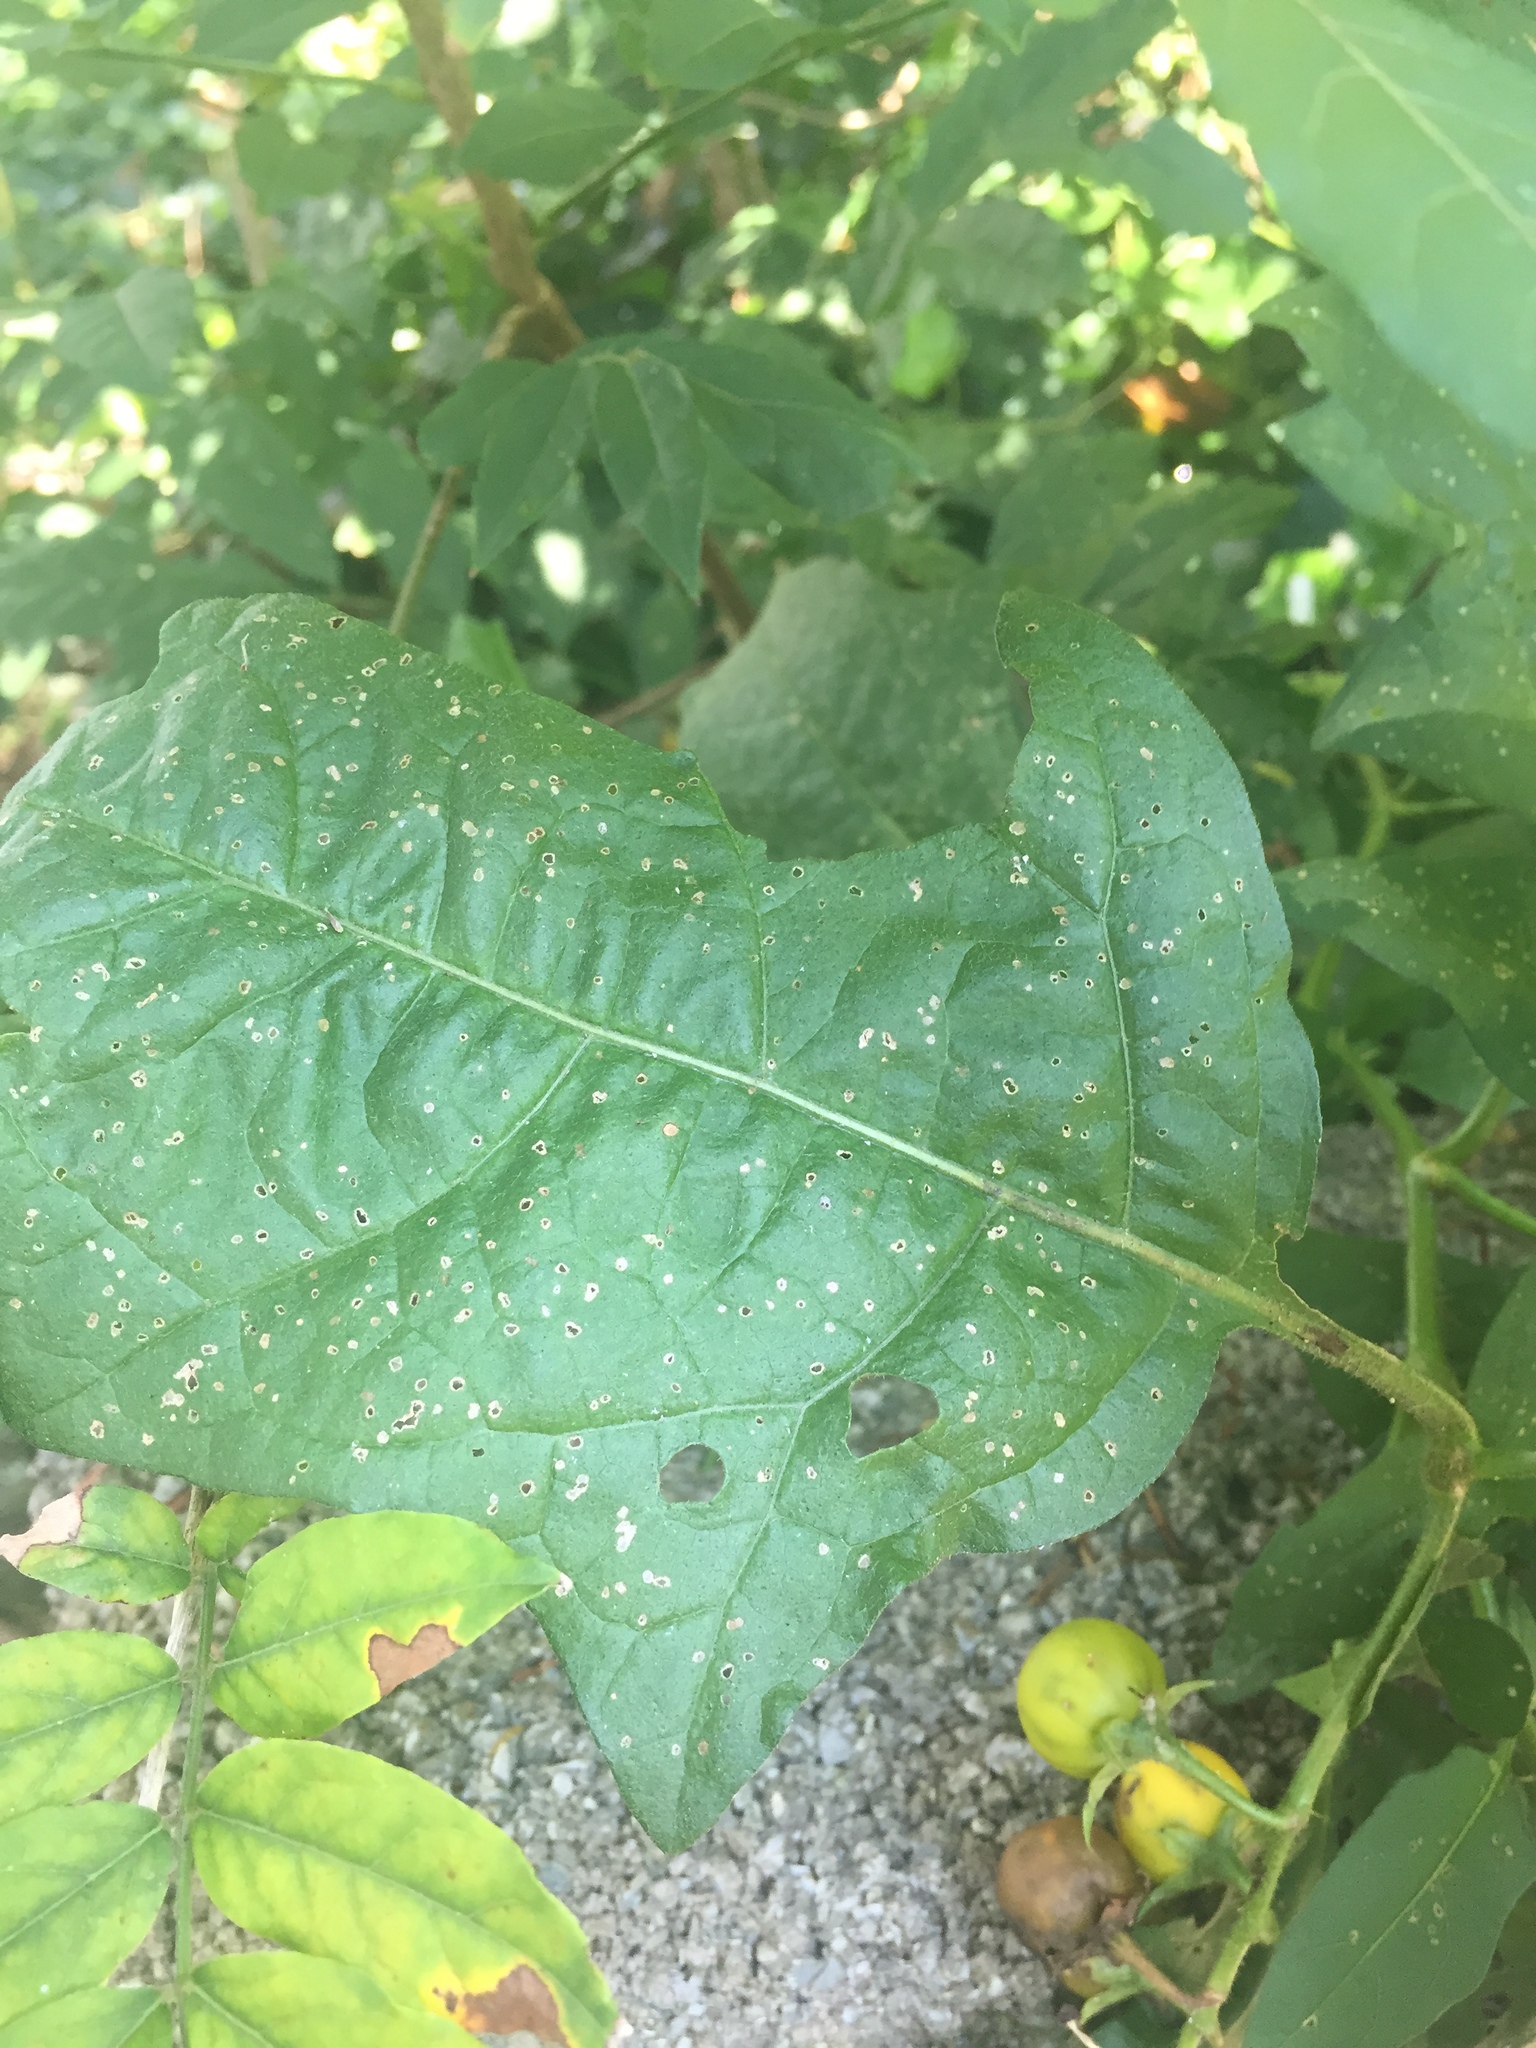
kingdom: Plantae
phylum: Tracheophyta
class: Magnoliopsida
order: Solanales
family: Solanaceae
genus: Solanum
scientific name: Solanum carolinense
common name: Horse-nettle
